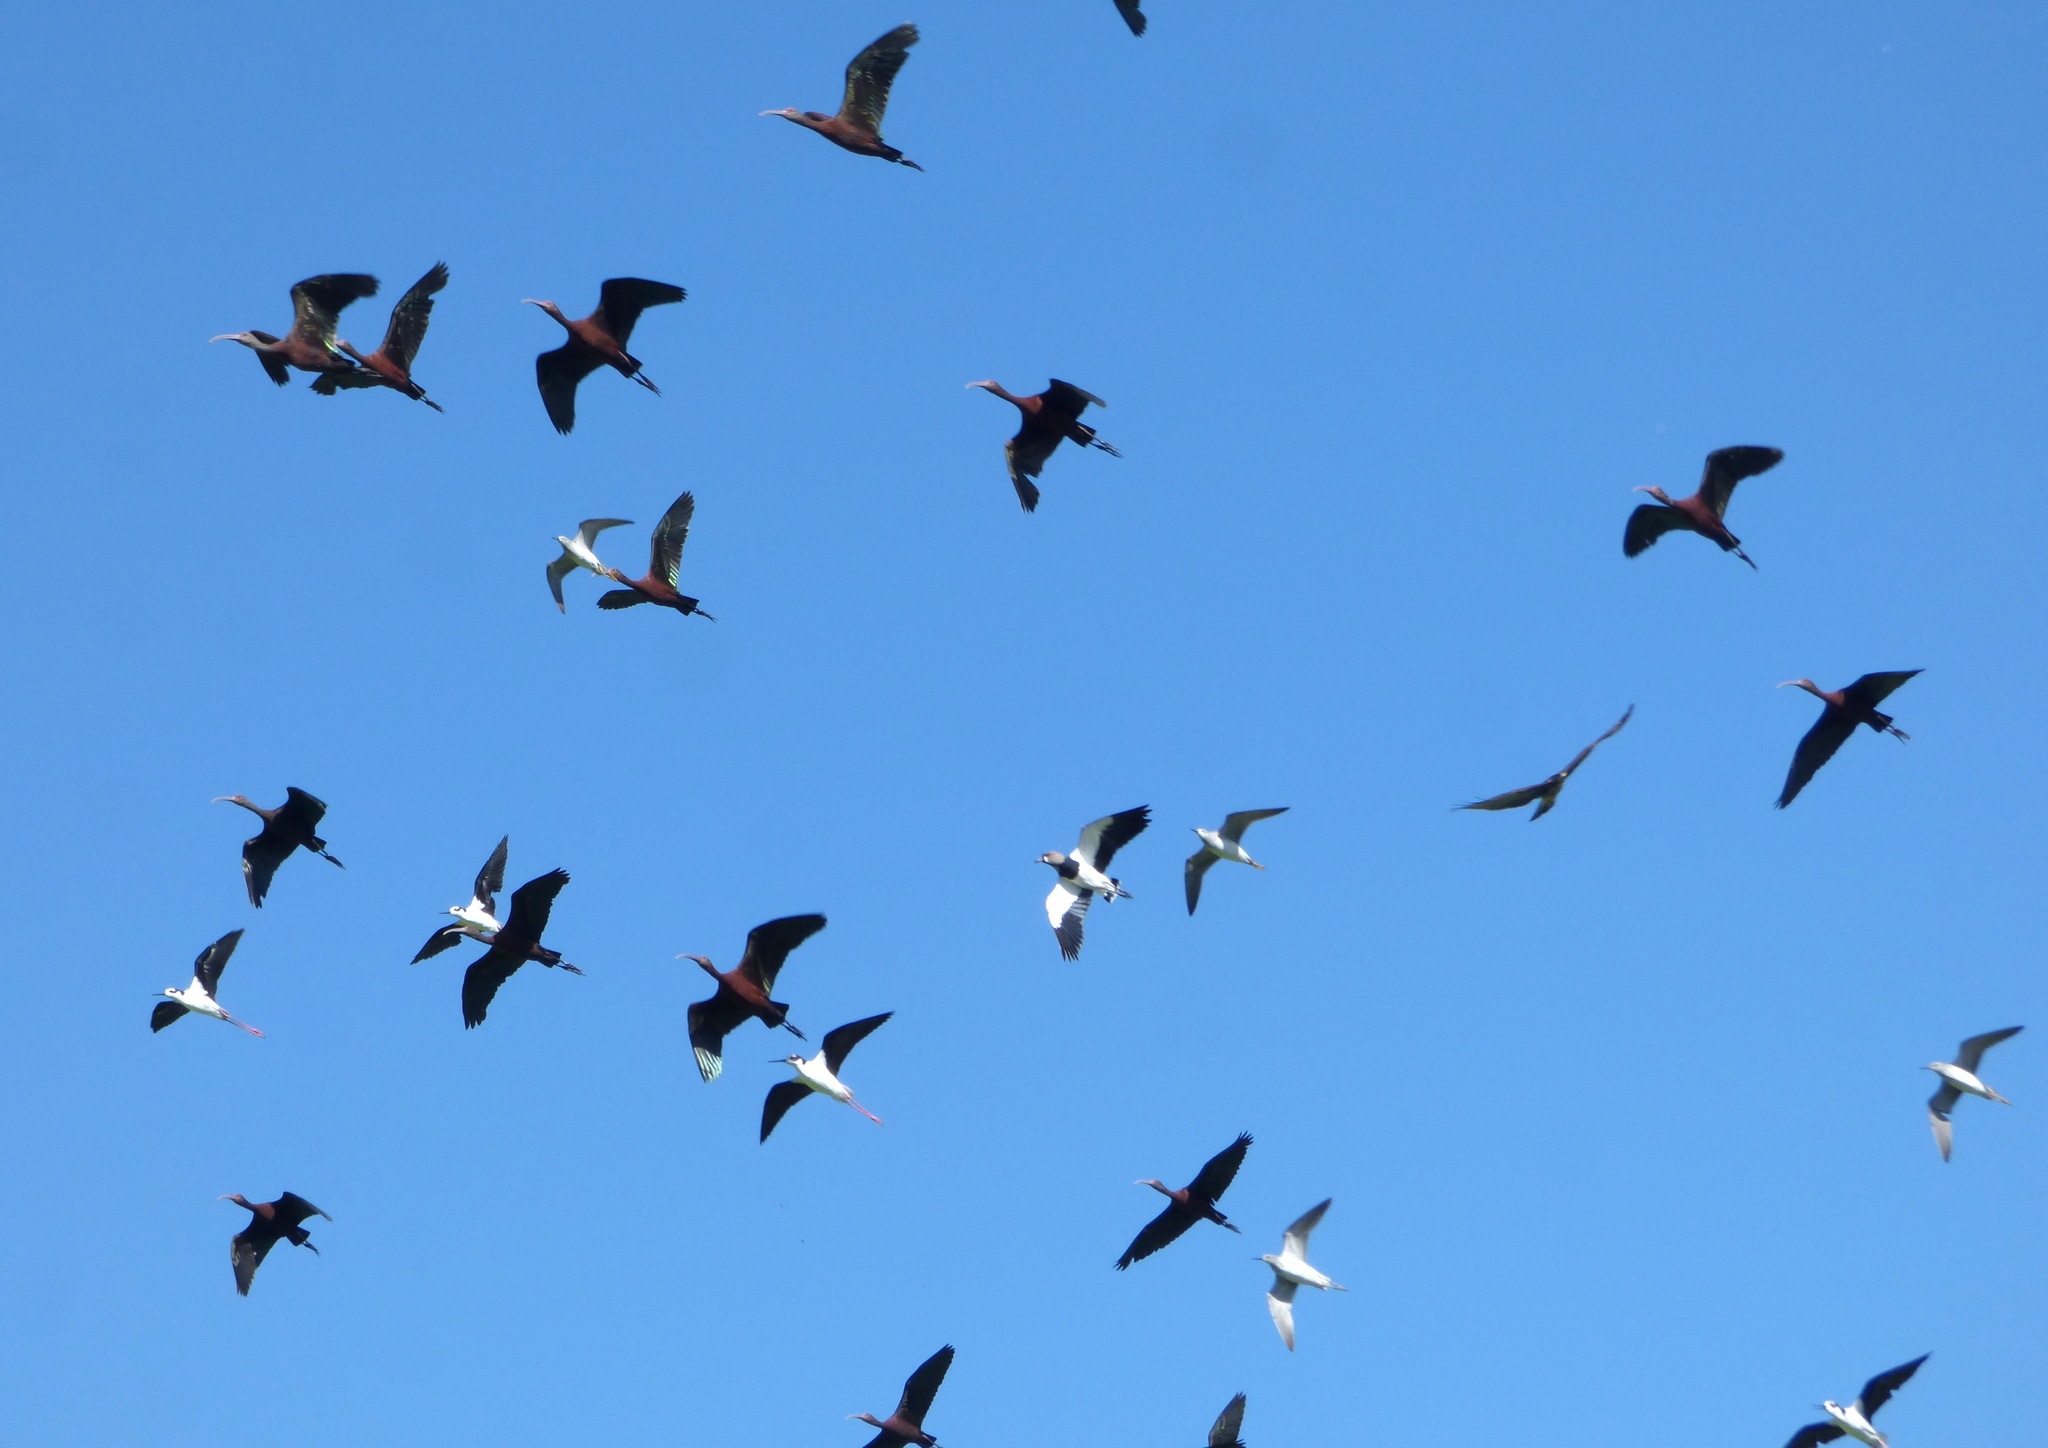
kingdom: Animalia
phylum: Chordata
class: Aves
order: Pelecaniformes
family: Threskiornithidae
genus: Plegadis
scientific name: Plegadis chihi
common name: White-faced ibis
